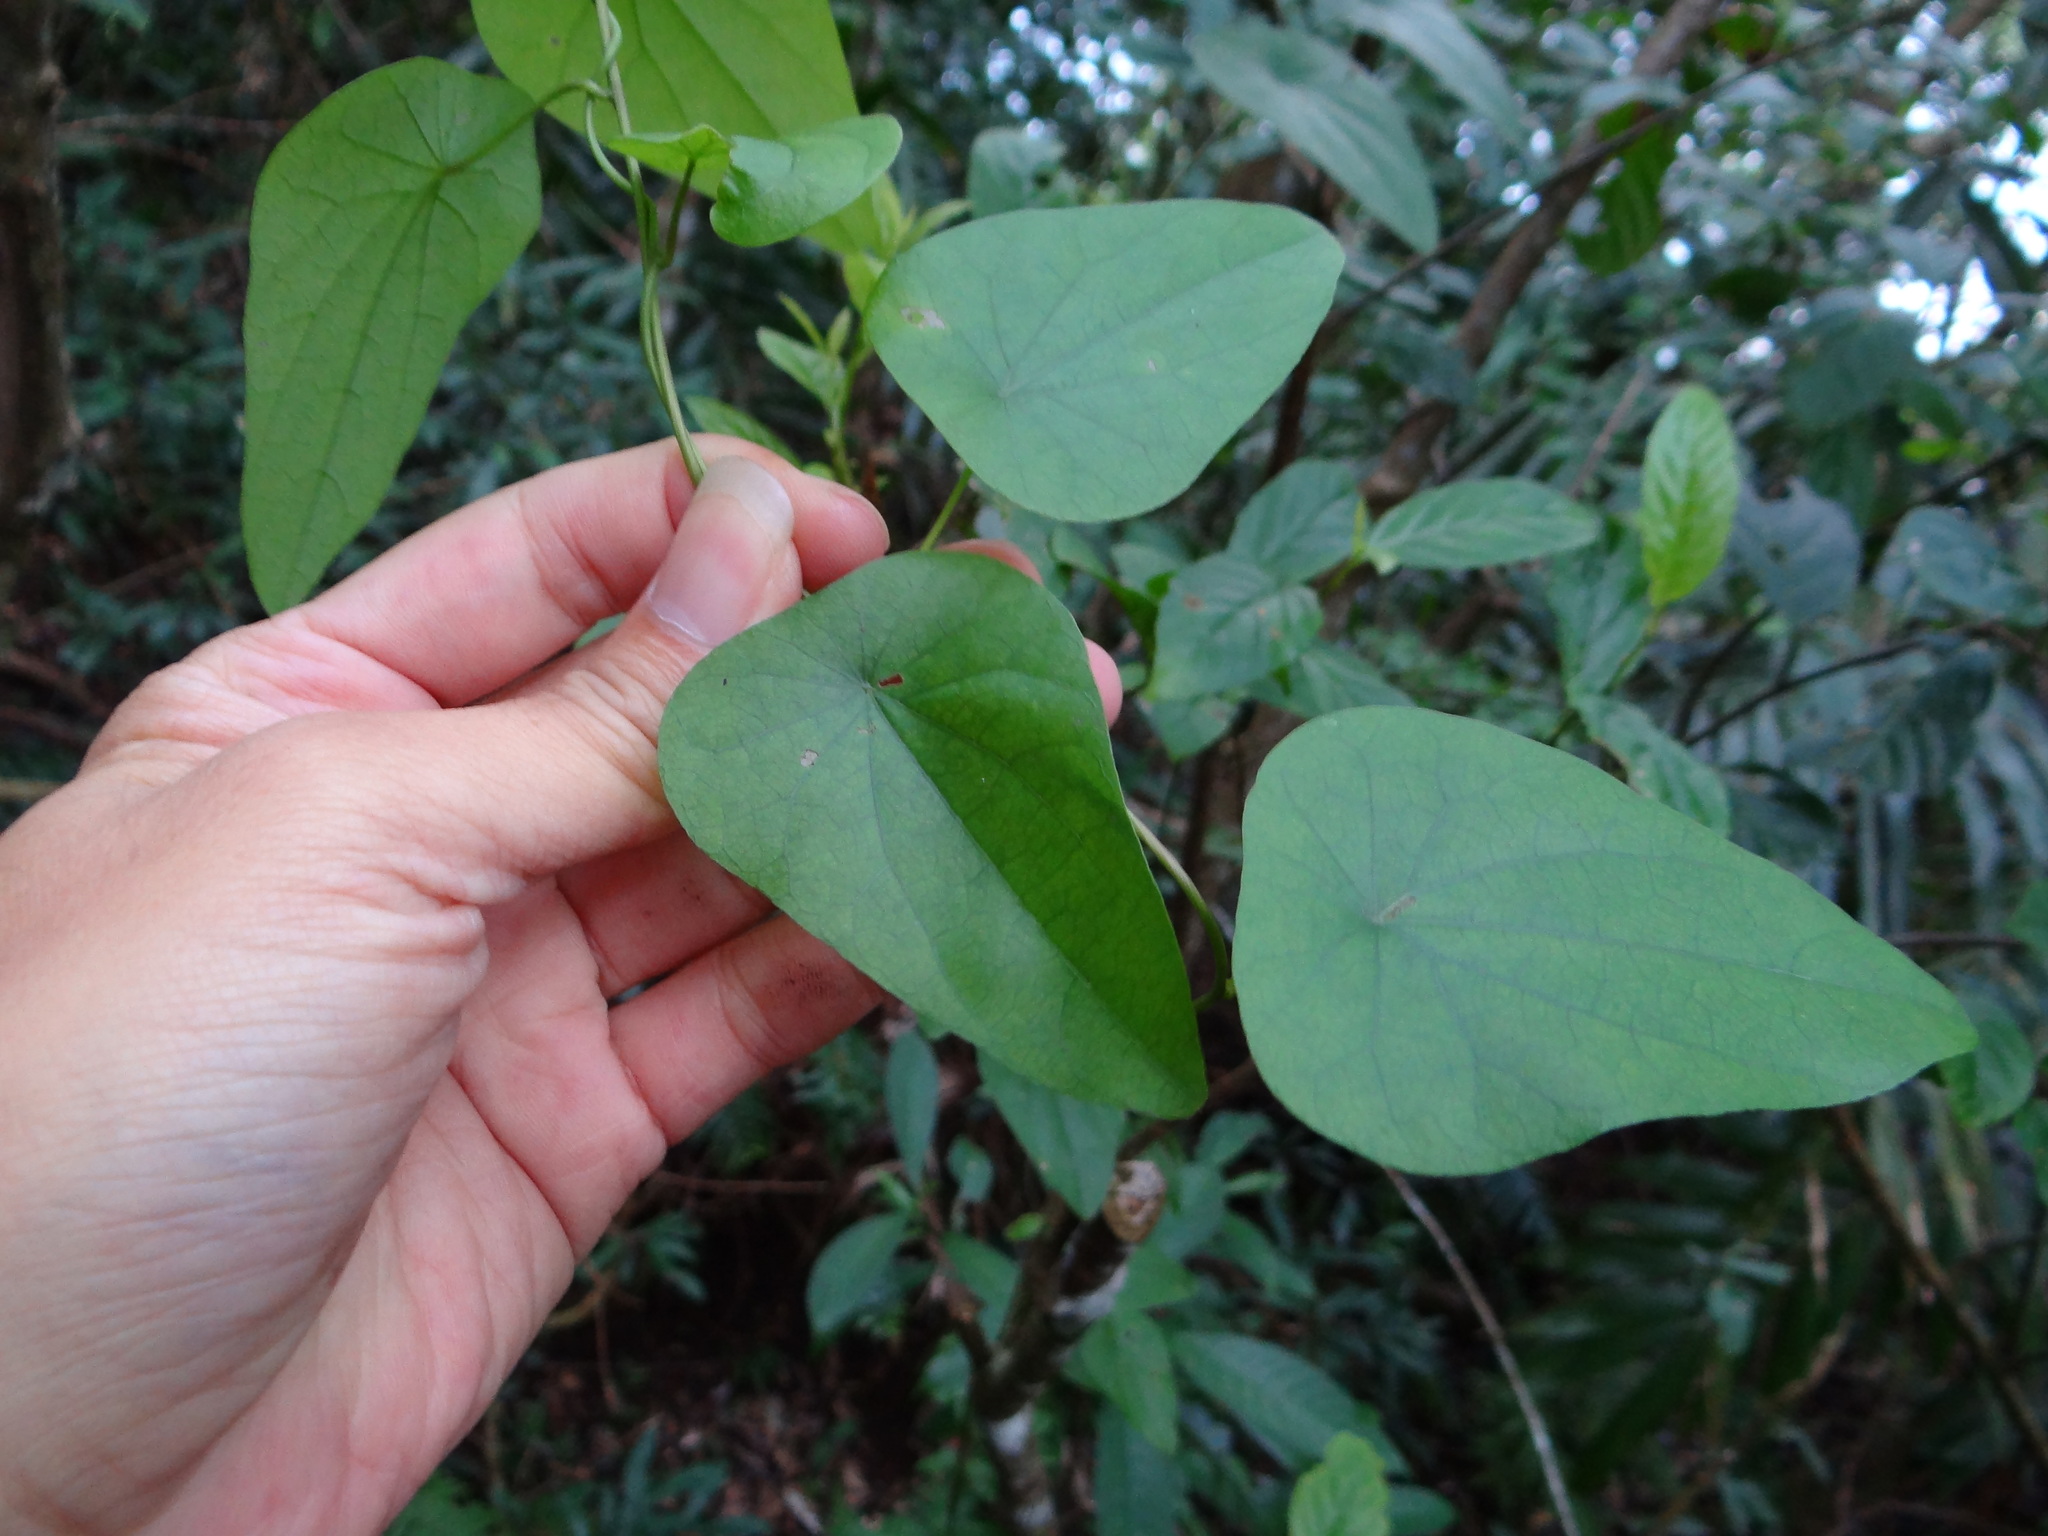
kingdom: Plantae
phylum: Tracheophyta
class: Magnoliopsida
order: Ranunculales
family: Menispermaceae
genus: Stephania
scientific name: Stephania longa
